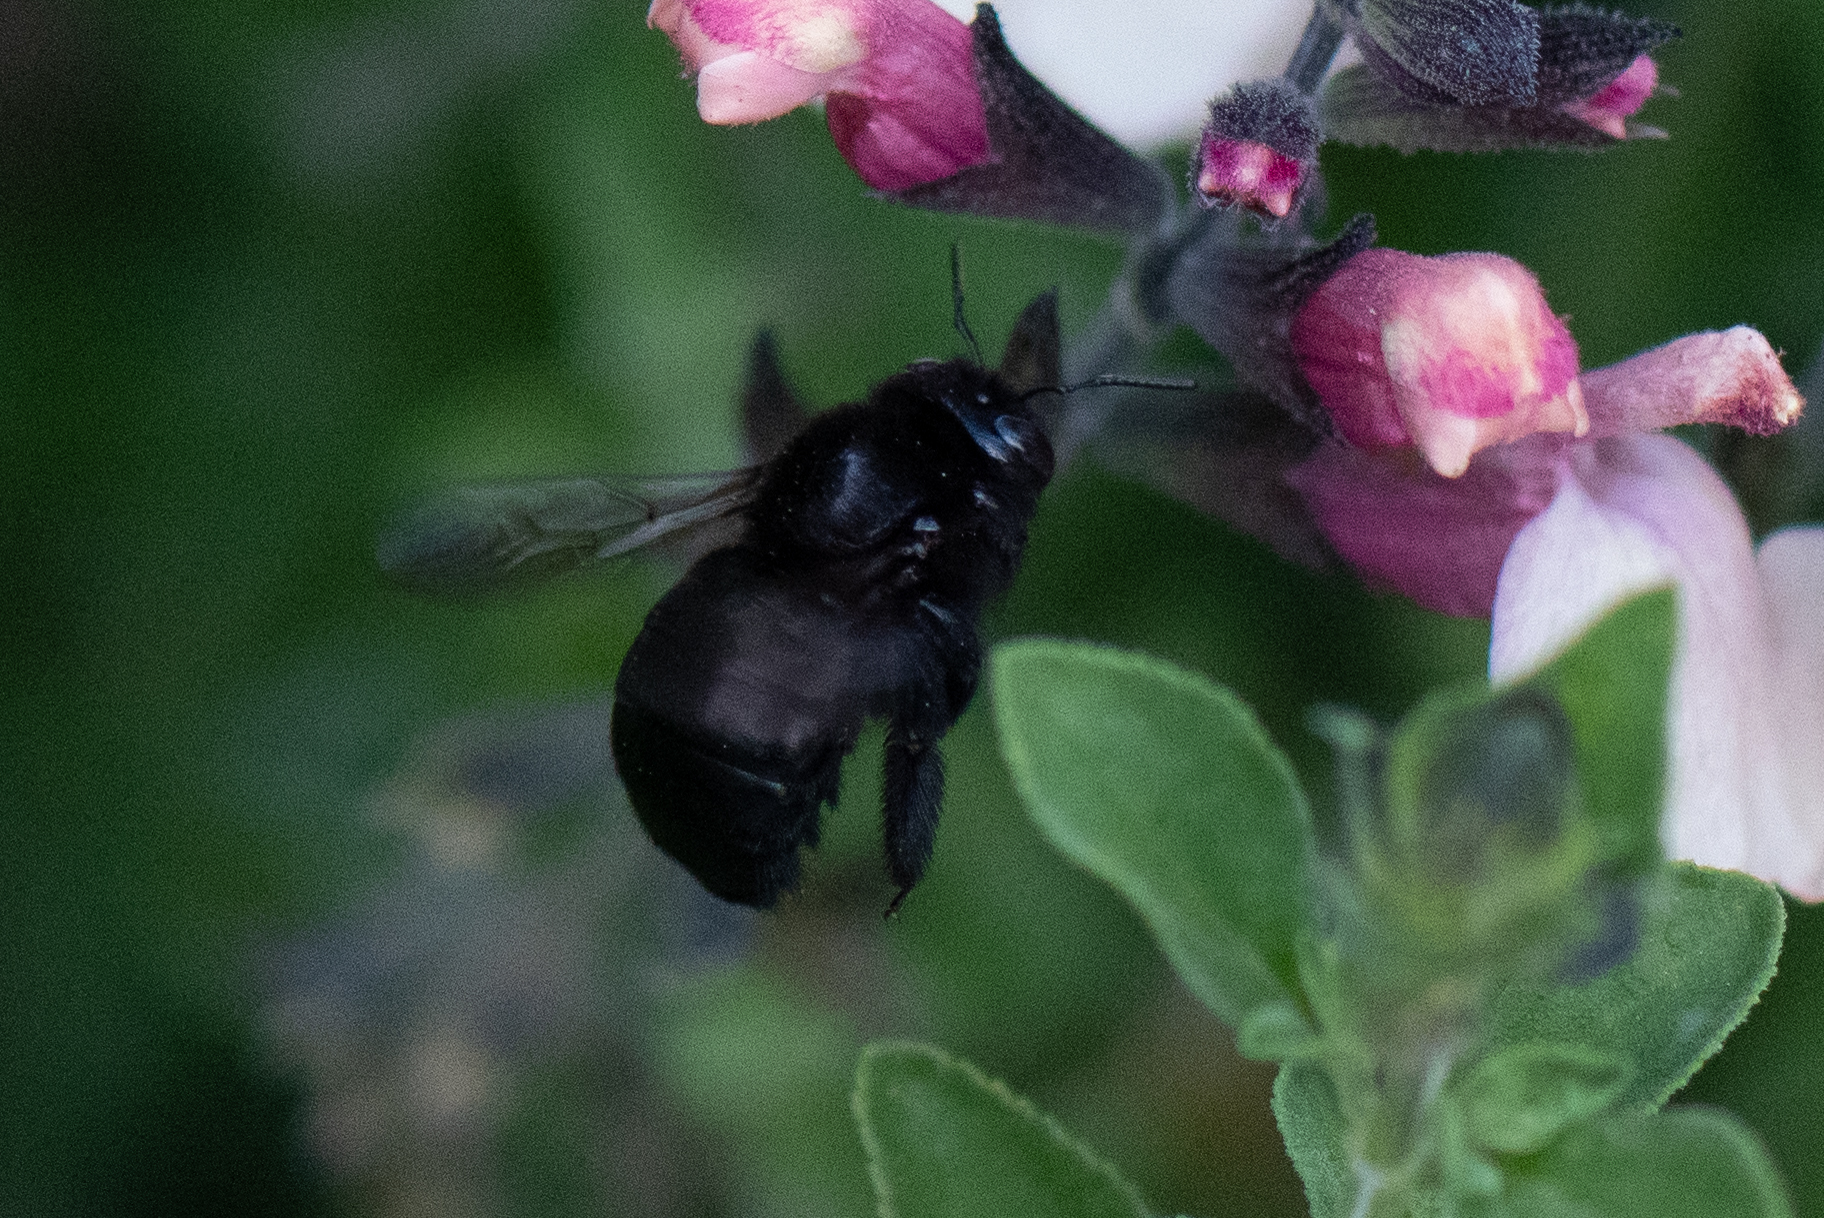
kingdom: Animalia
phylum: Arthropoda
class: Insecta
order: Hymenoptera
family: Apidae
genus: Xylocopa
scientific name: Xylocopa tabaniformis
